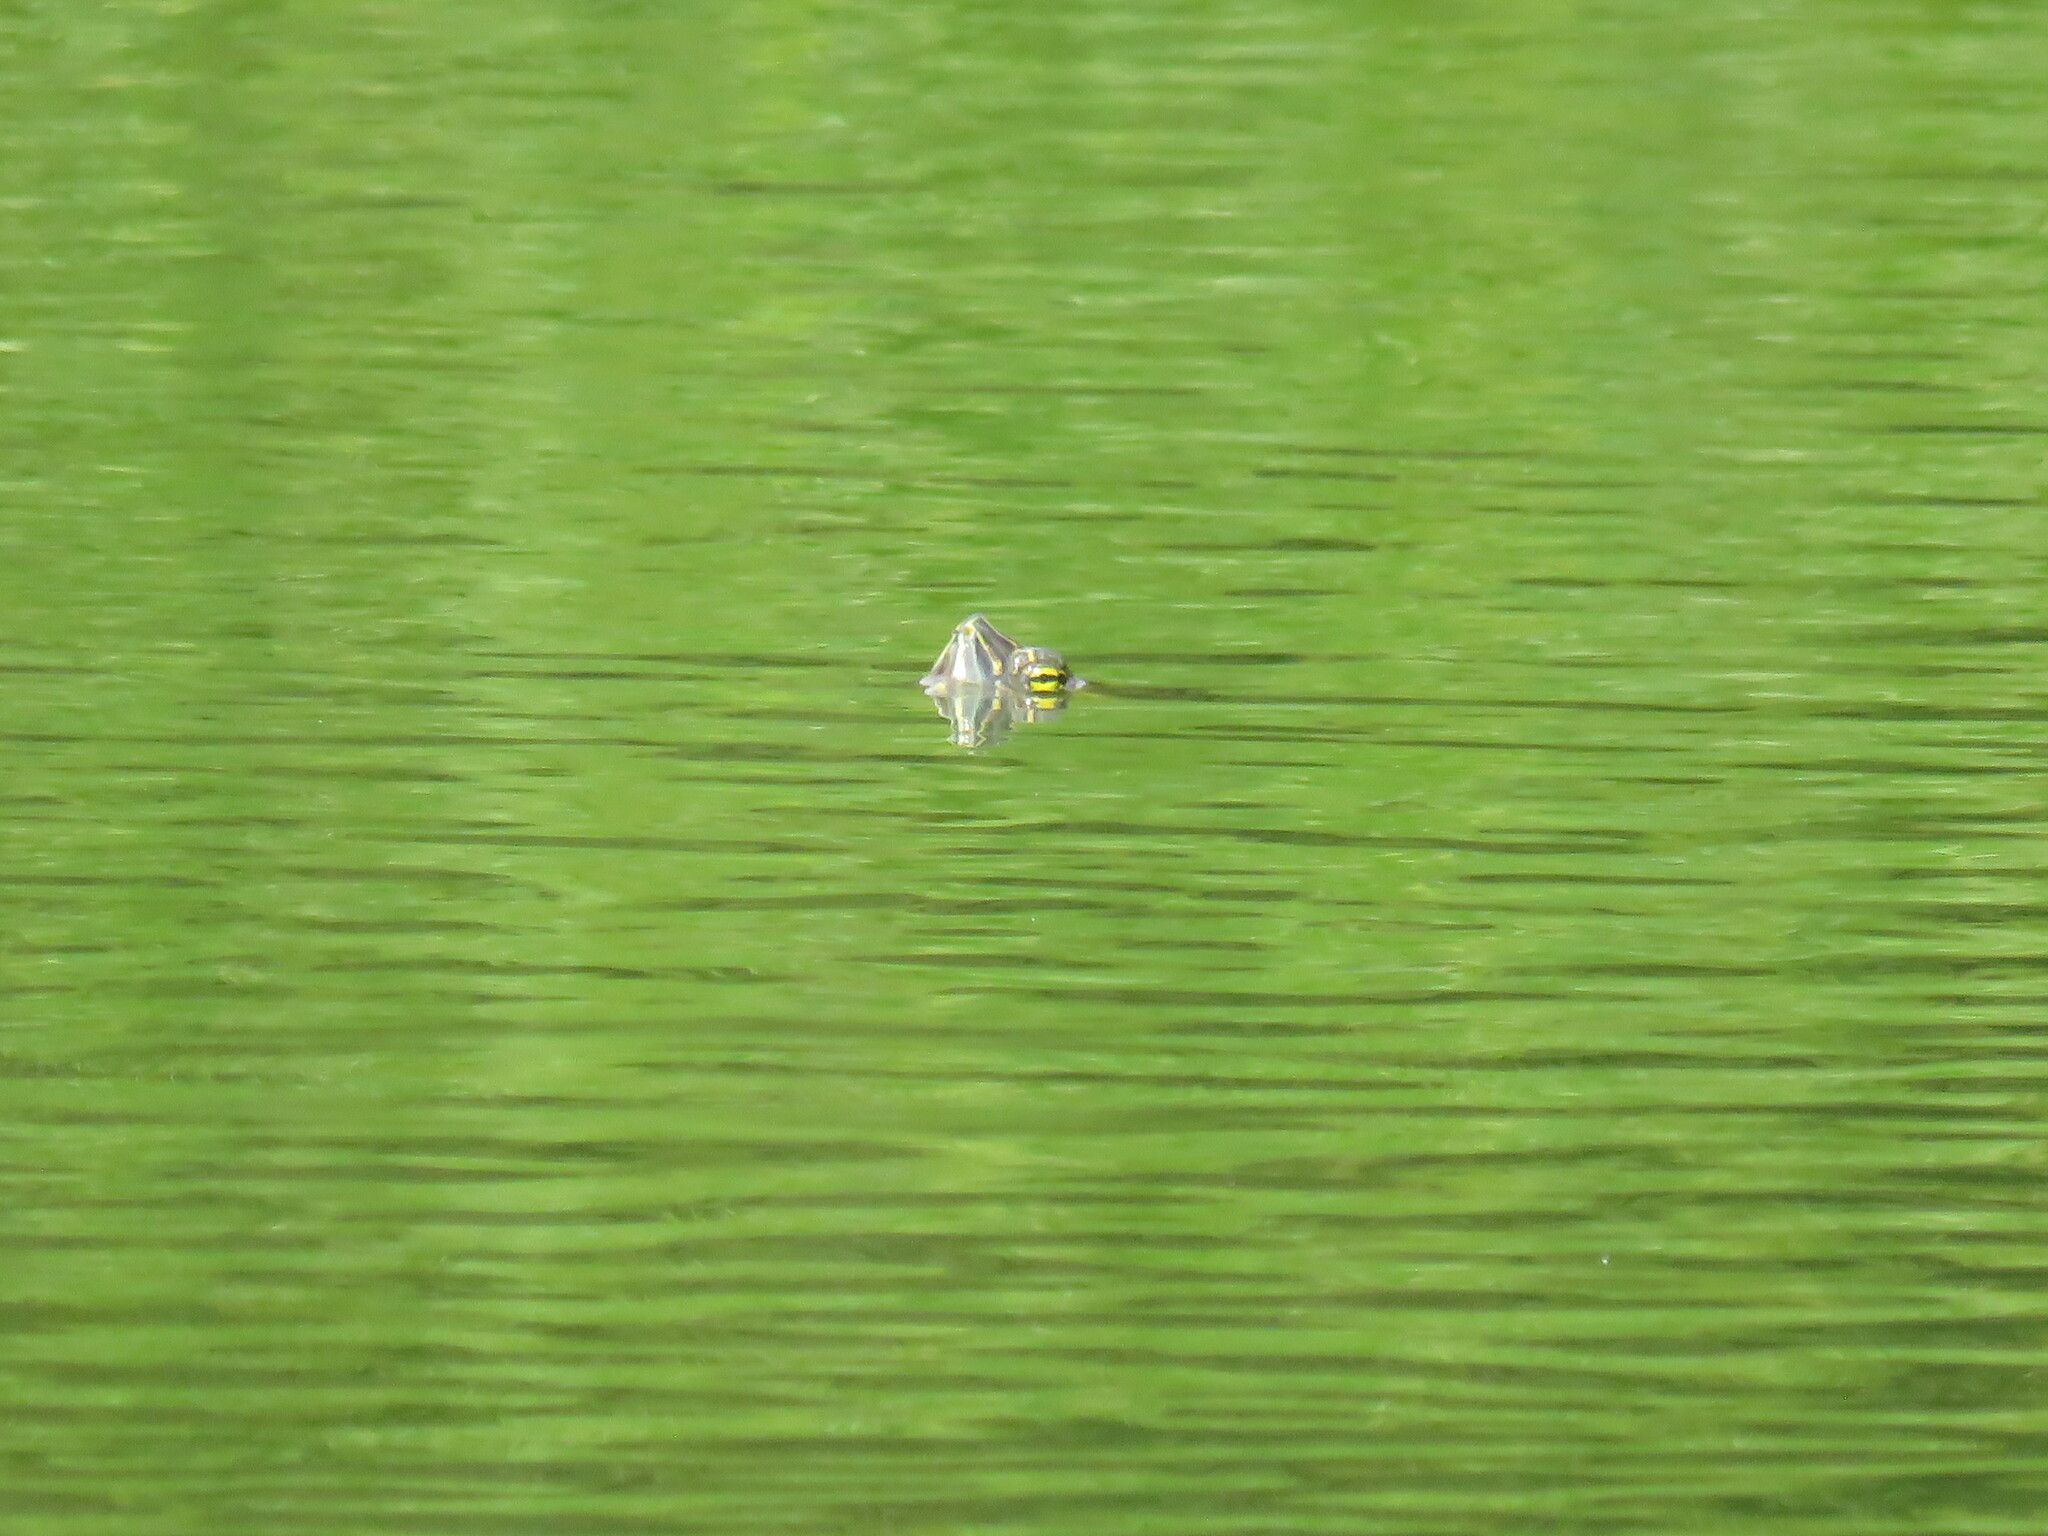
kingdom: Animalia
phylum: Chordata
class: Testudines
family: Emydidae
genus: Trachemys
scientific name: Trachemys venusta
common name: Mesoamerican slider
